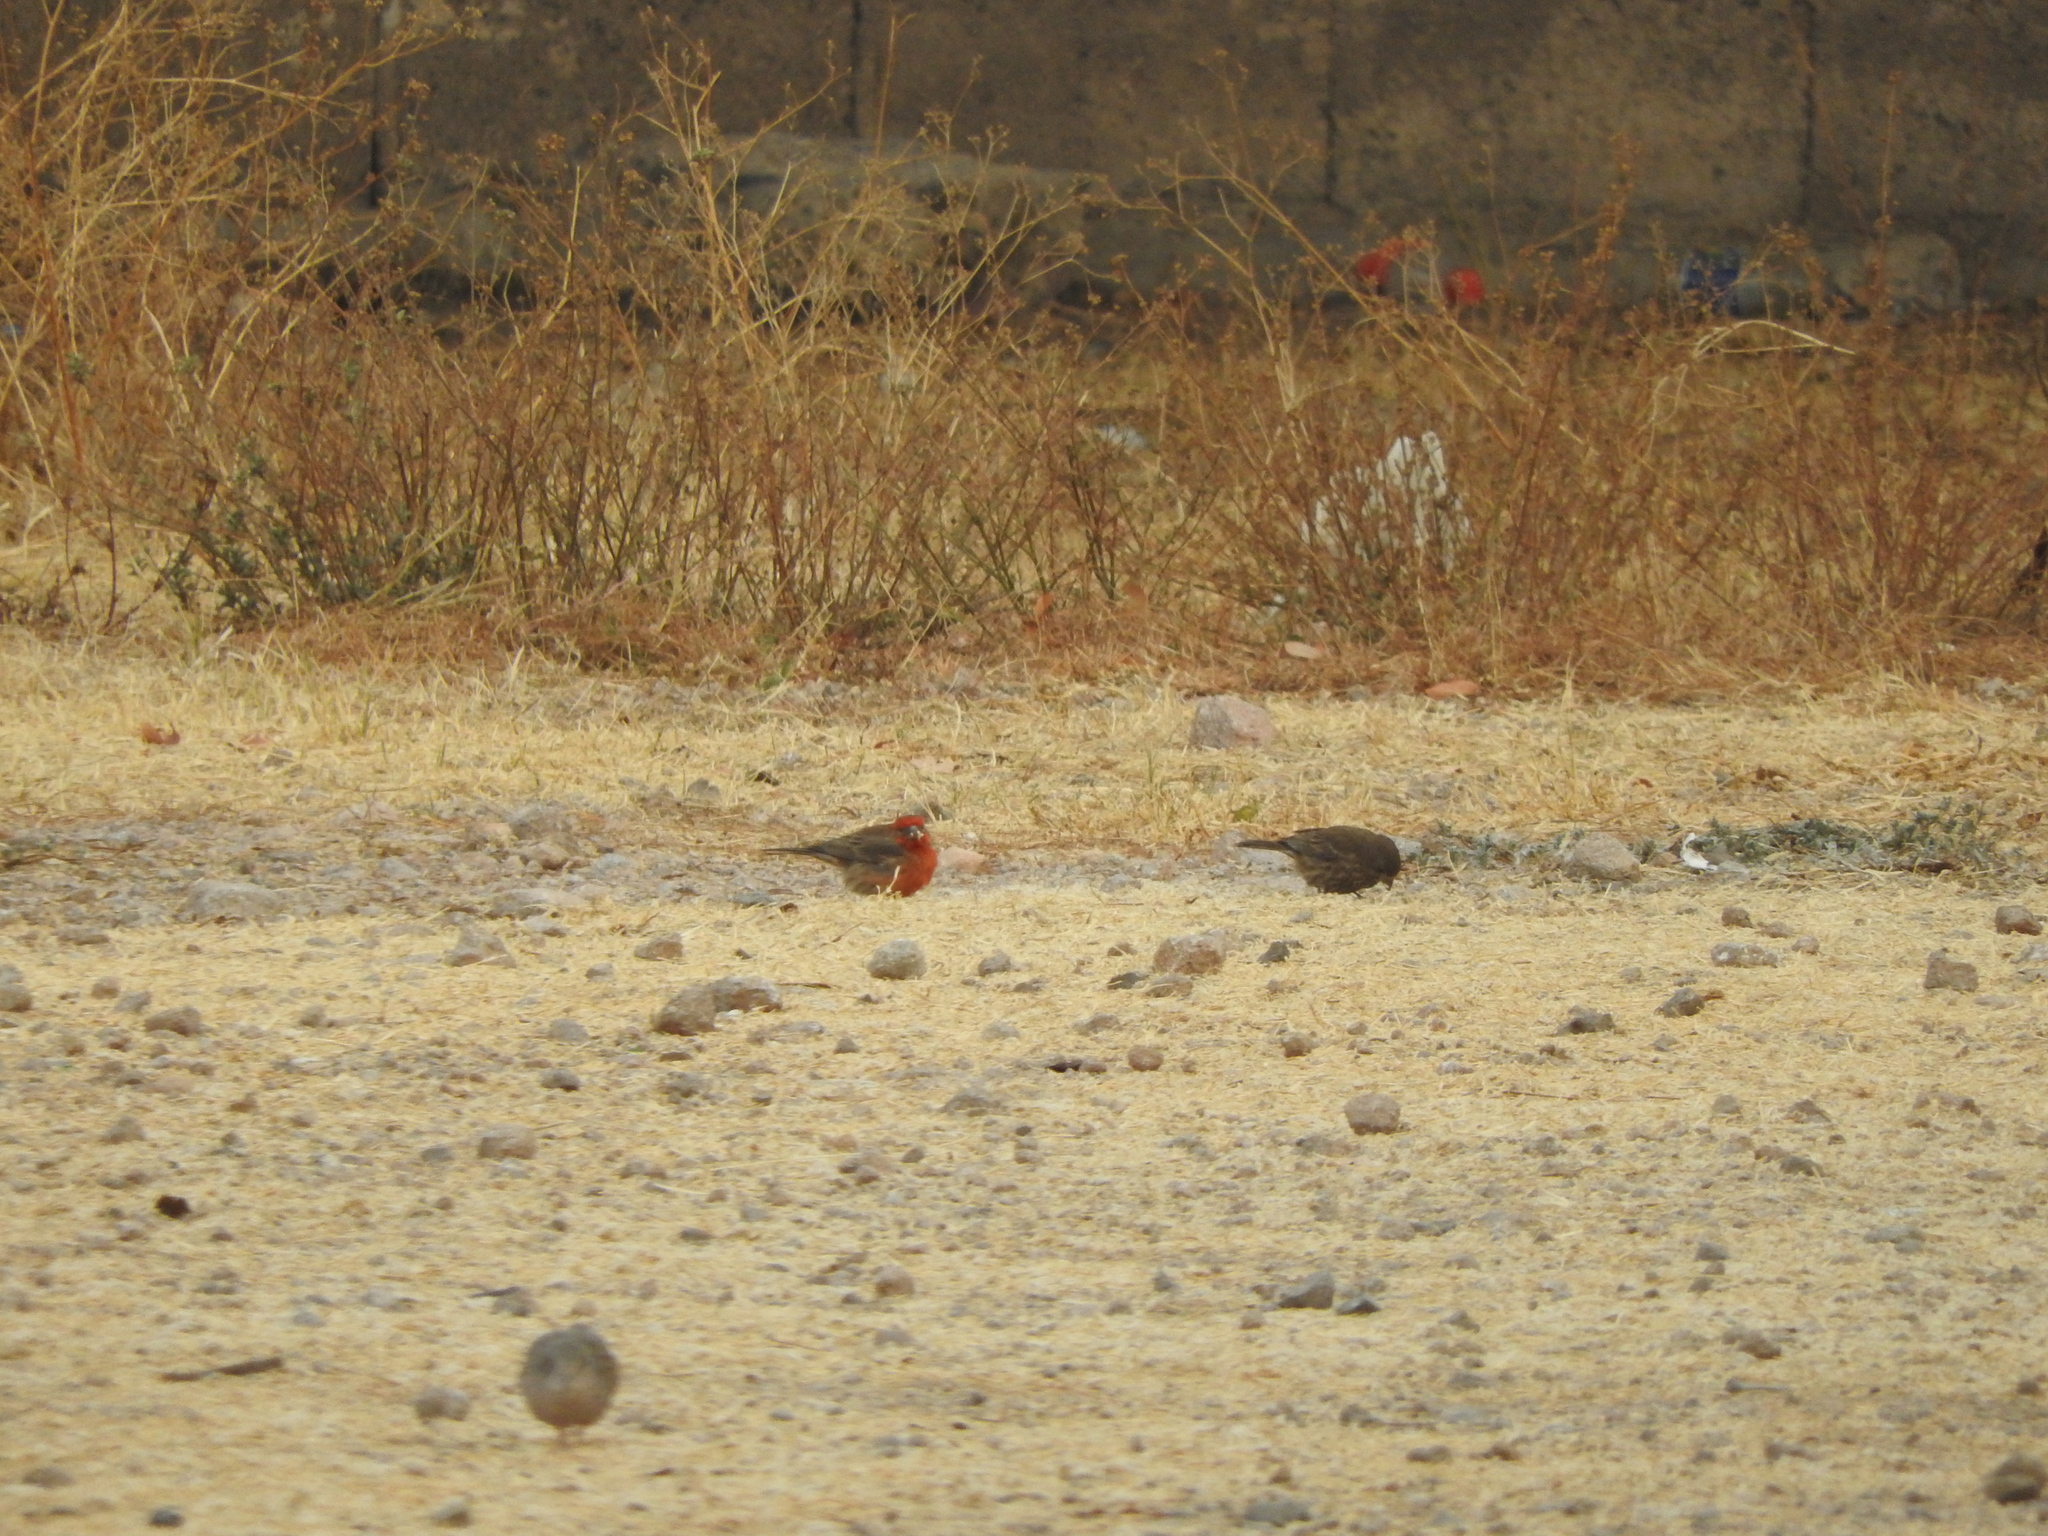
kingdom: Animalia
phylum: Chordata
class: Aves
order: Passeriformes
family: Fringillidae
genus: Haemorhous
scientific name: Haemorhous mexicanus
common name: House finch
